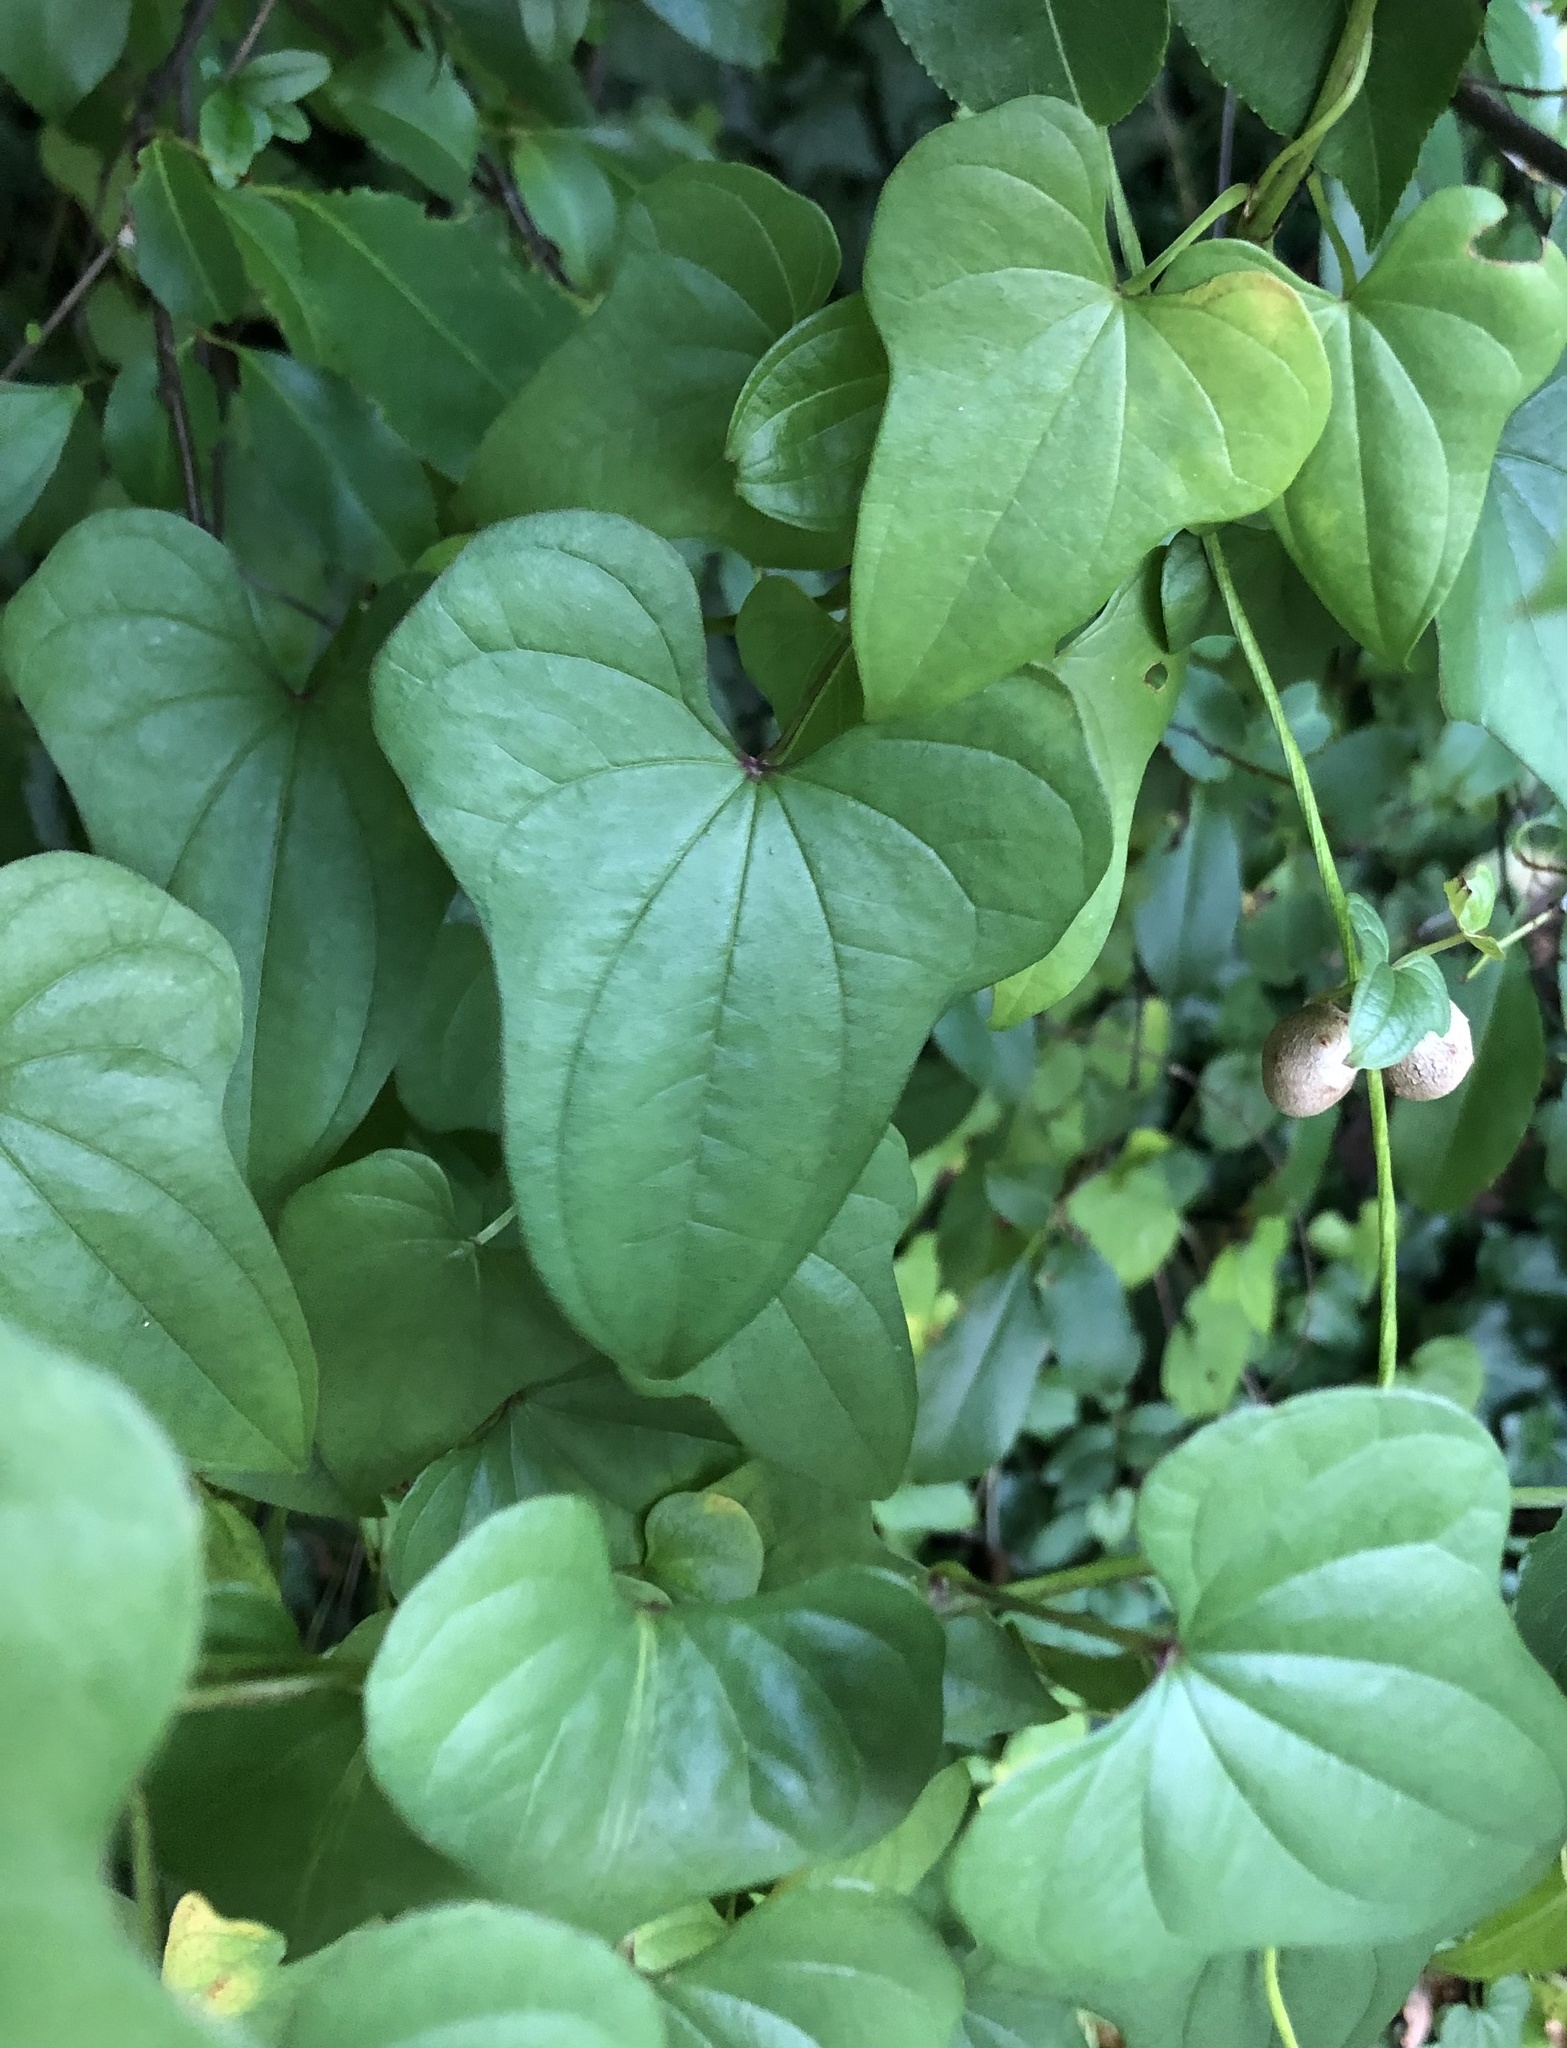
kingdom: Plantae
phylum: Tracheophyta
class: Liliopsida
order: Dioscoreales
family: Dioscoreaceae
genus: Dioscorea
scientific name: Dioscorea polystachya
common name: Chinese yam
